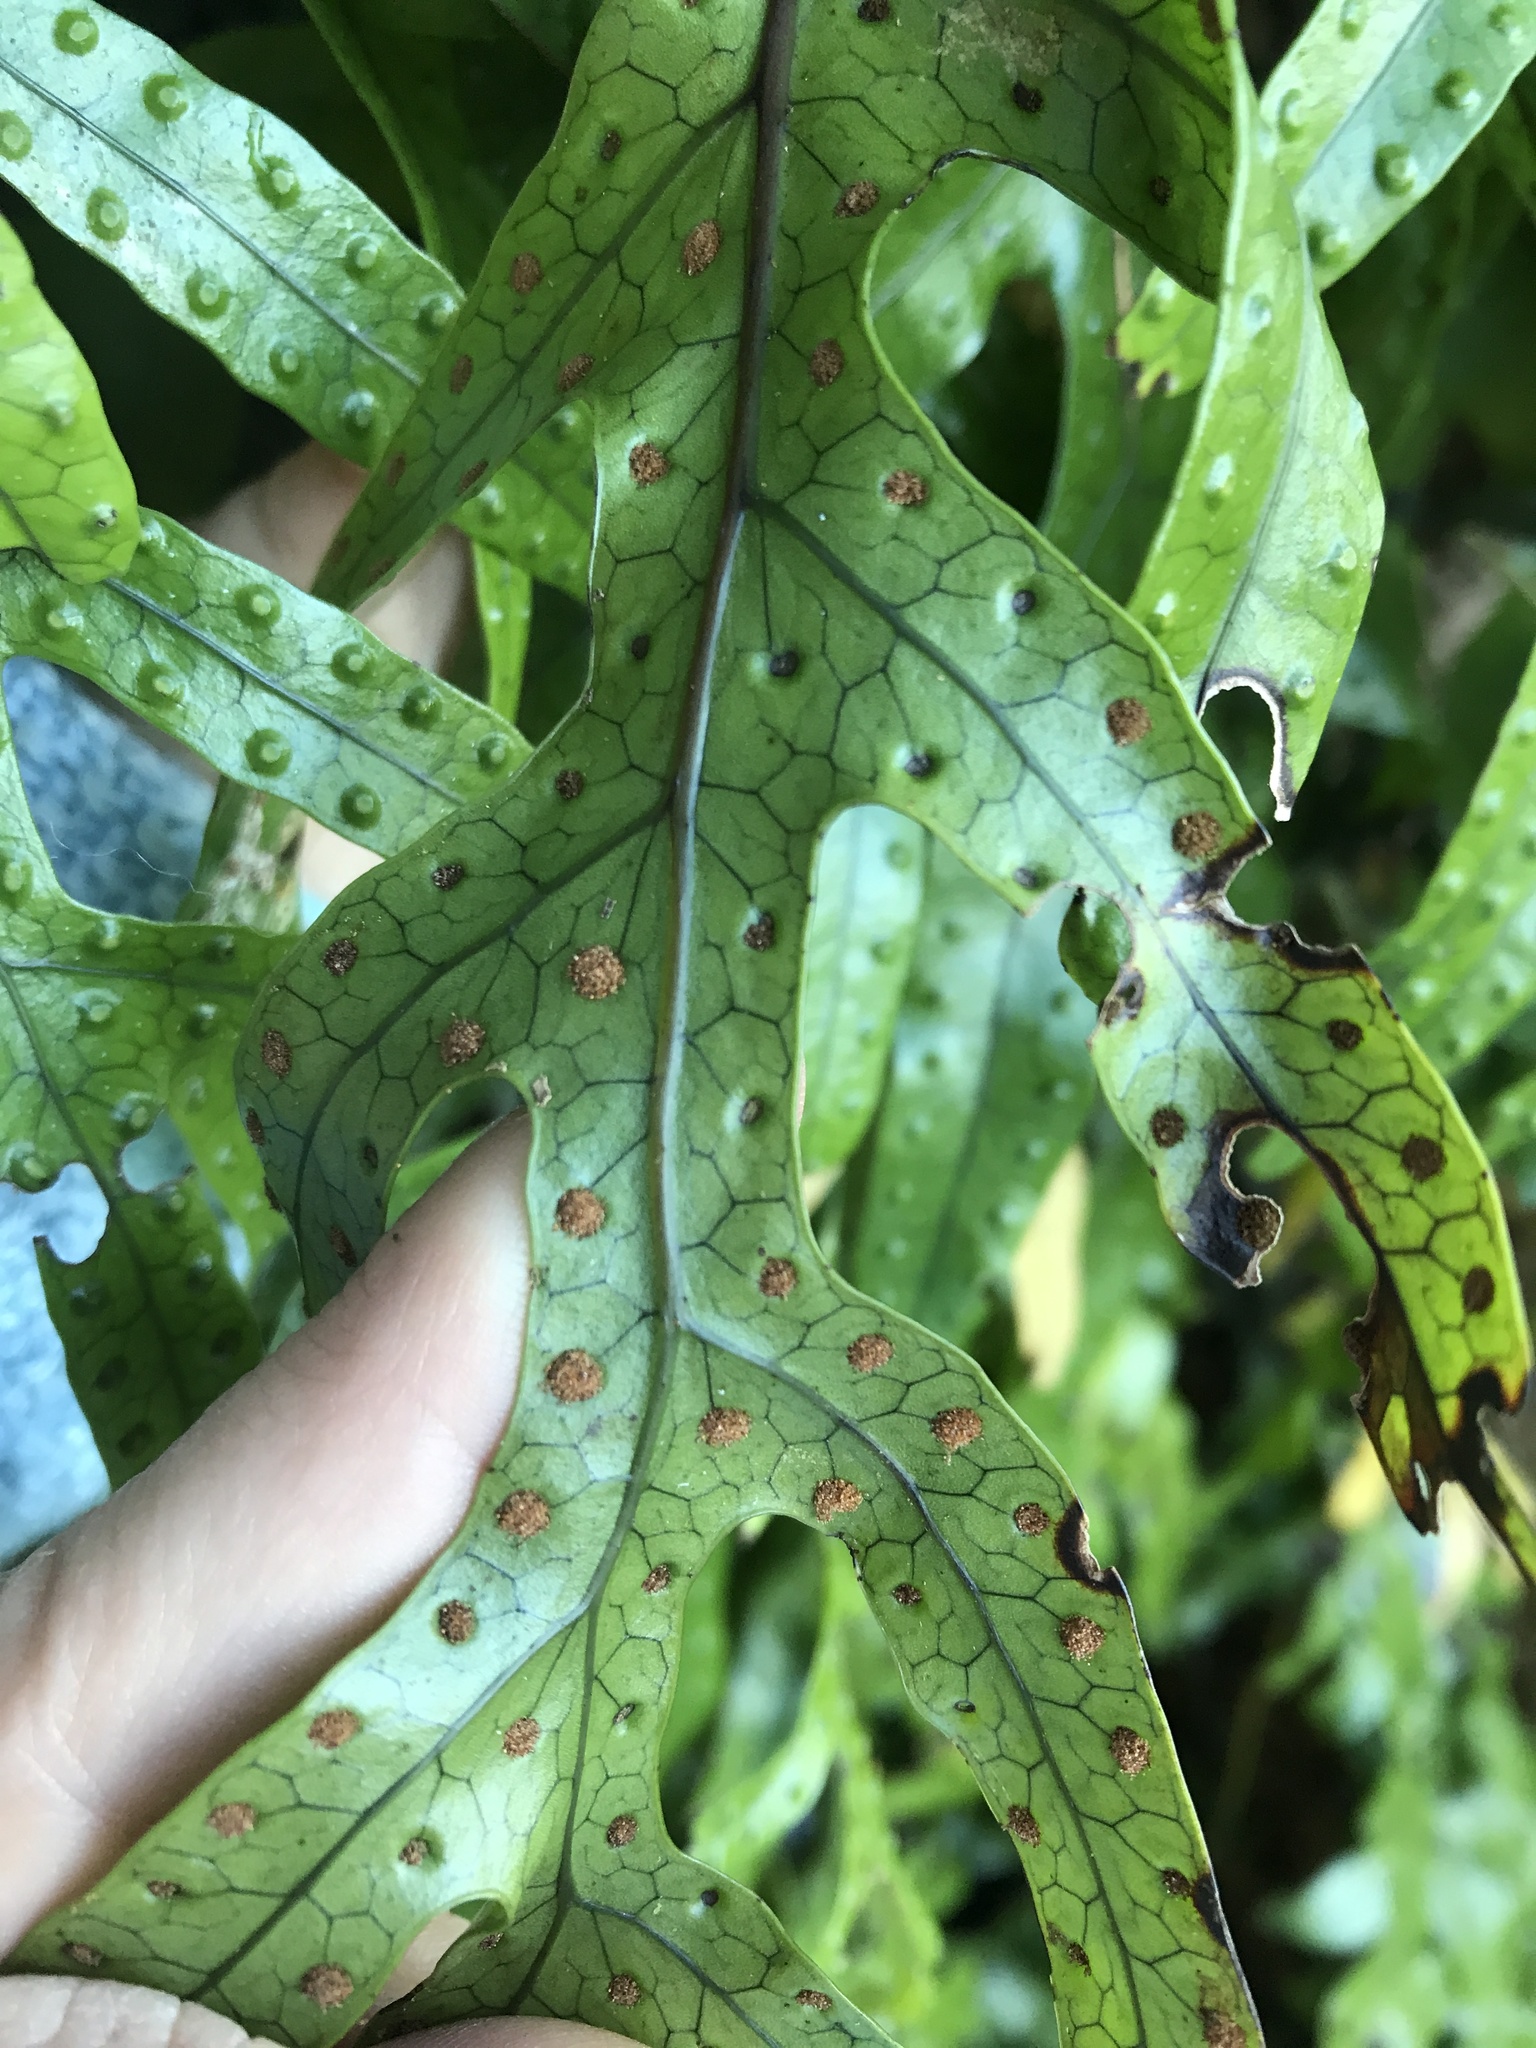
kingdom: Plantae
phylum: Tracheophyta
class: Polypodiopsida
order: Polypodiales
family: Polypodiaceae
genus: Lecanopteris
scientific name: Lecanopteris pustulata
